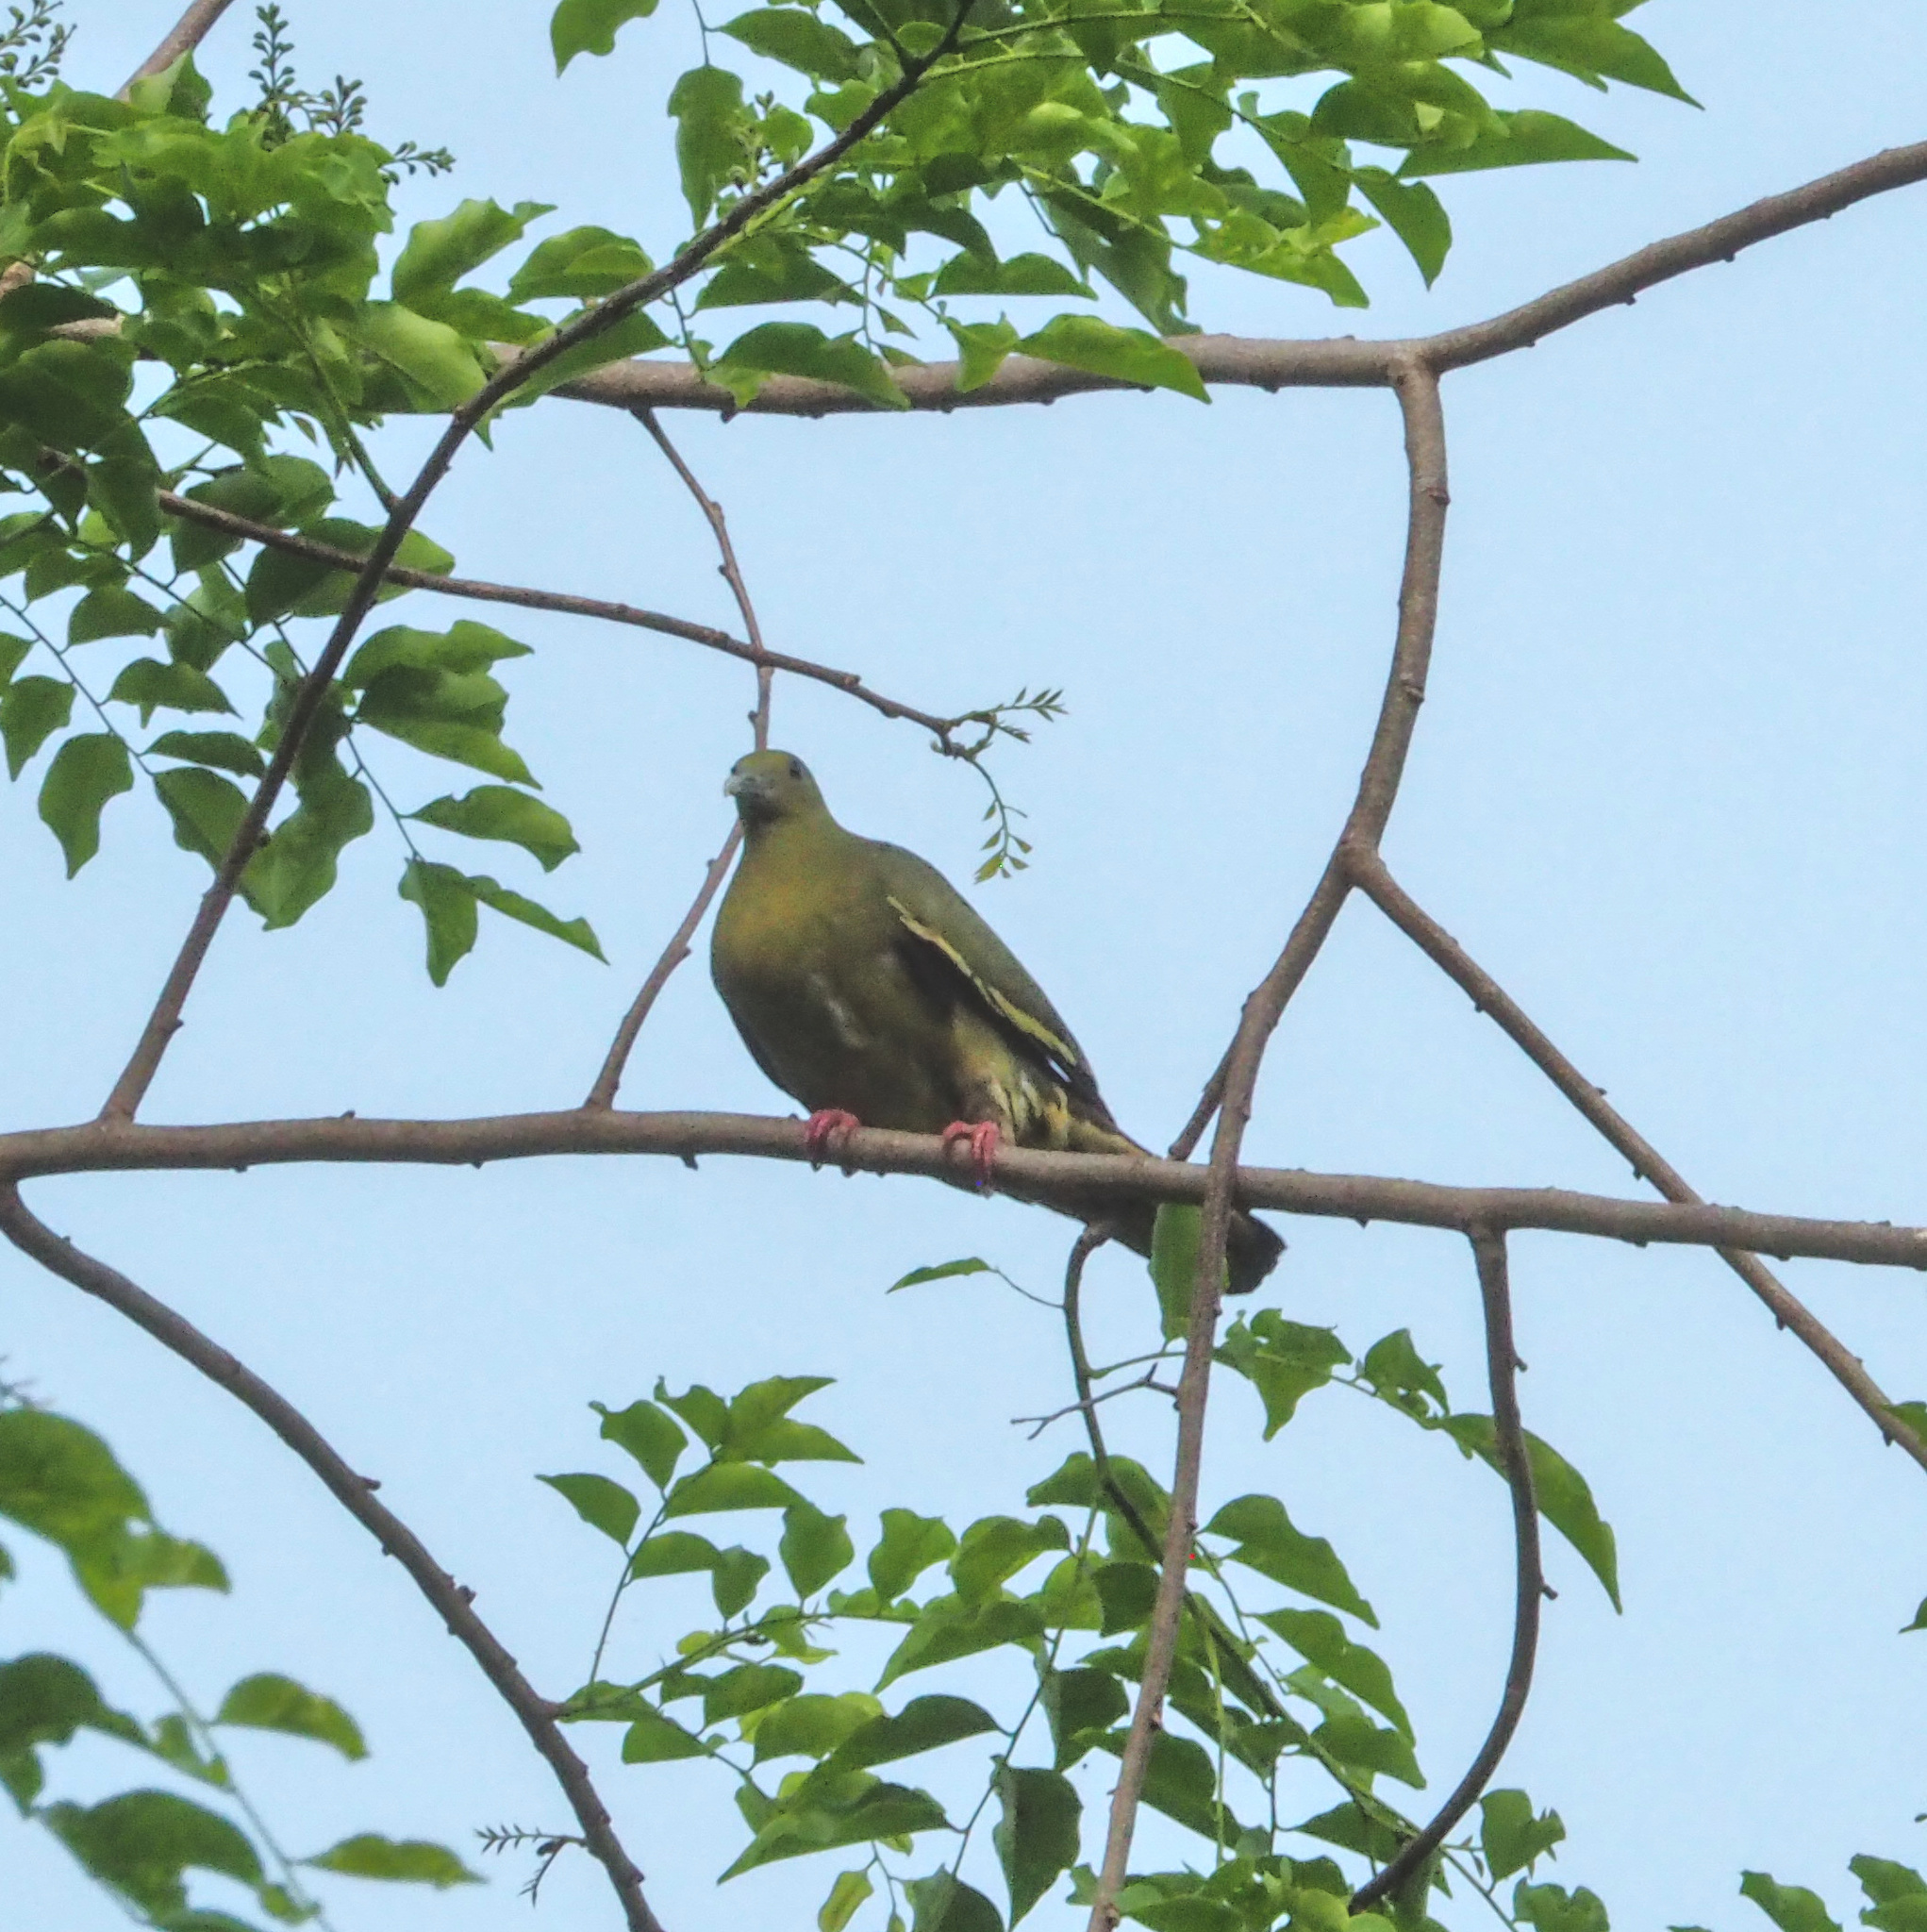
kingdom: Animalia
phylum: Chordata
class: Aves
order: Columbiformes
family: Columbidae
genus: Treron
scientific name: Treron vernans
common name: Pink-necked green pigeon
